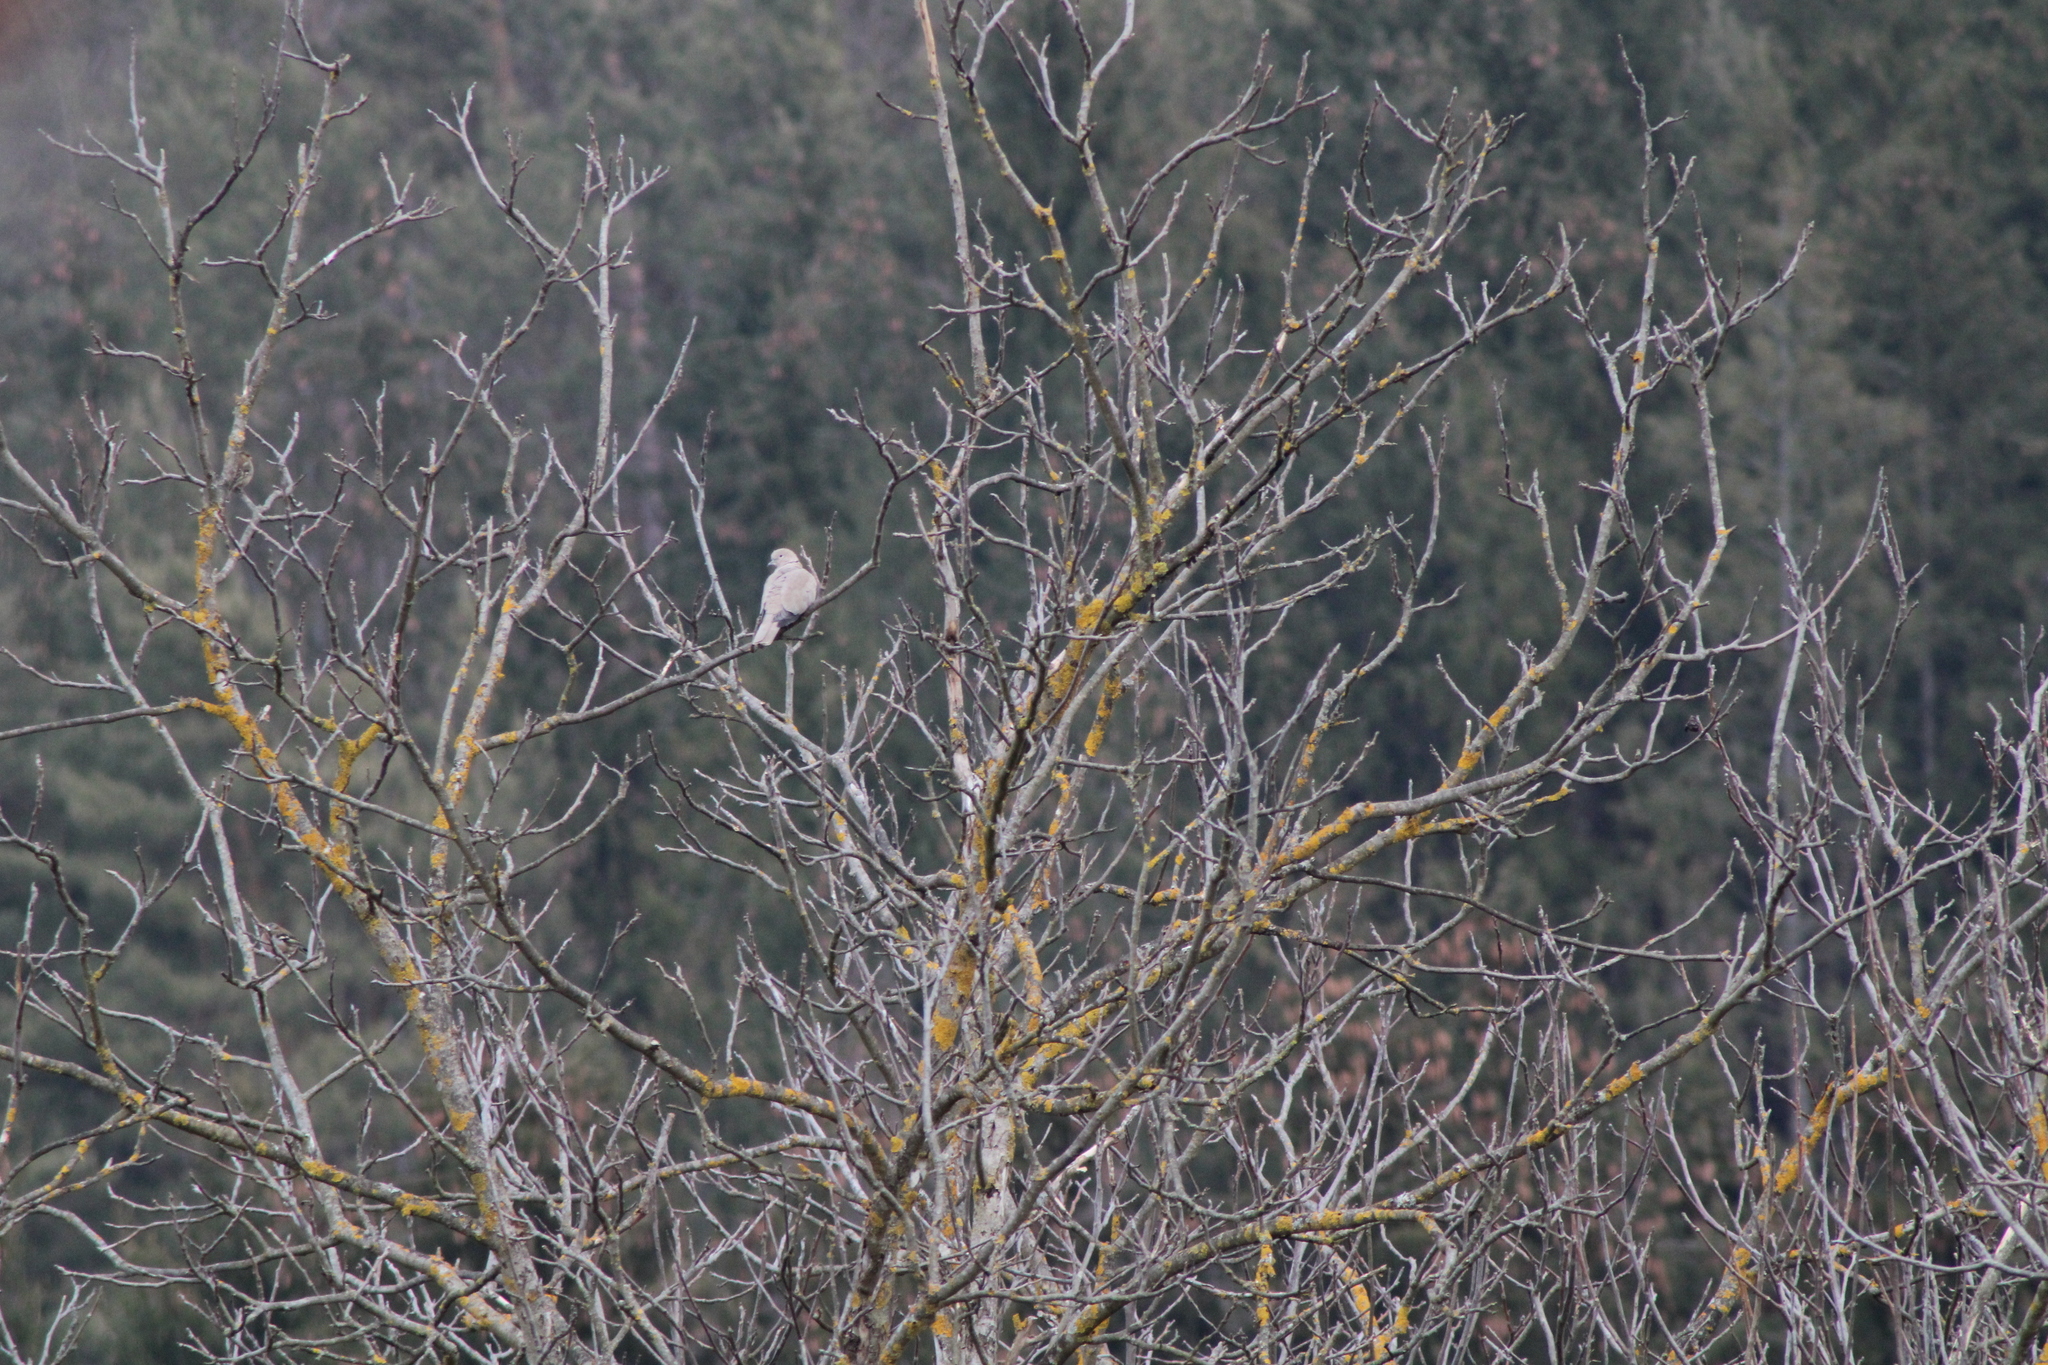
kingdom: Animalia
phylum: Chordata
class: Aves
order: Columbiformes
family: Columbidae
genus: Streptopelia
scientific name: Streptopelia decaocto
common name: Eurasian collared dove
